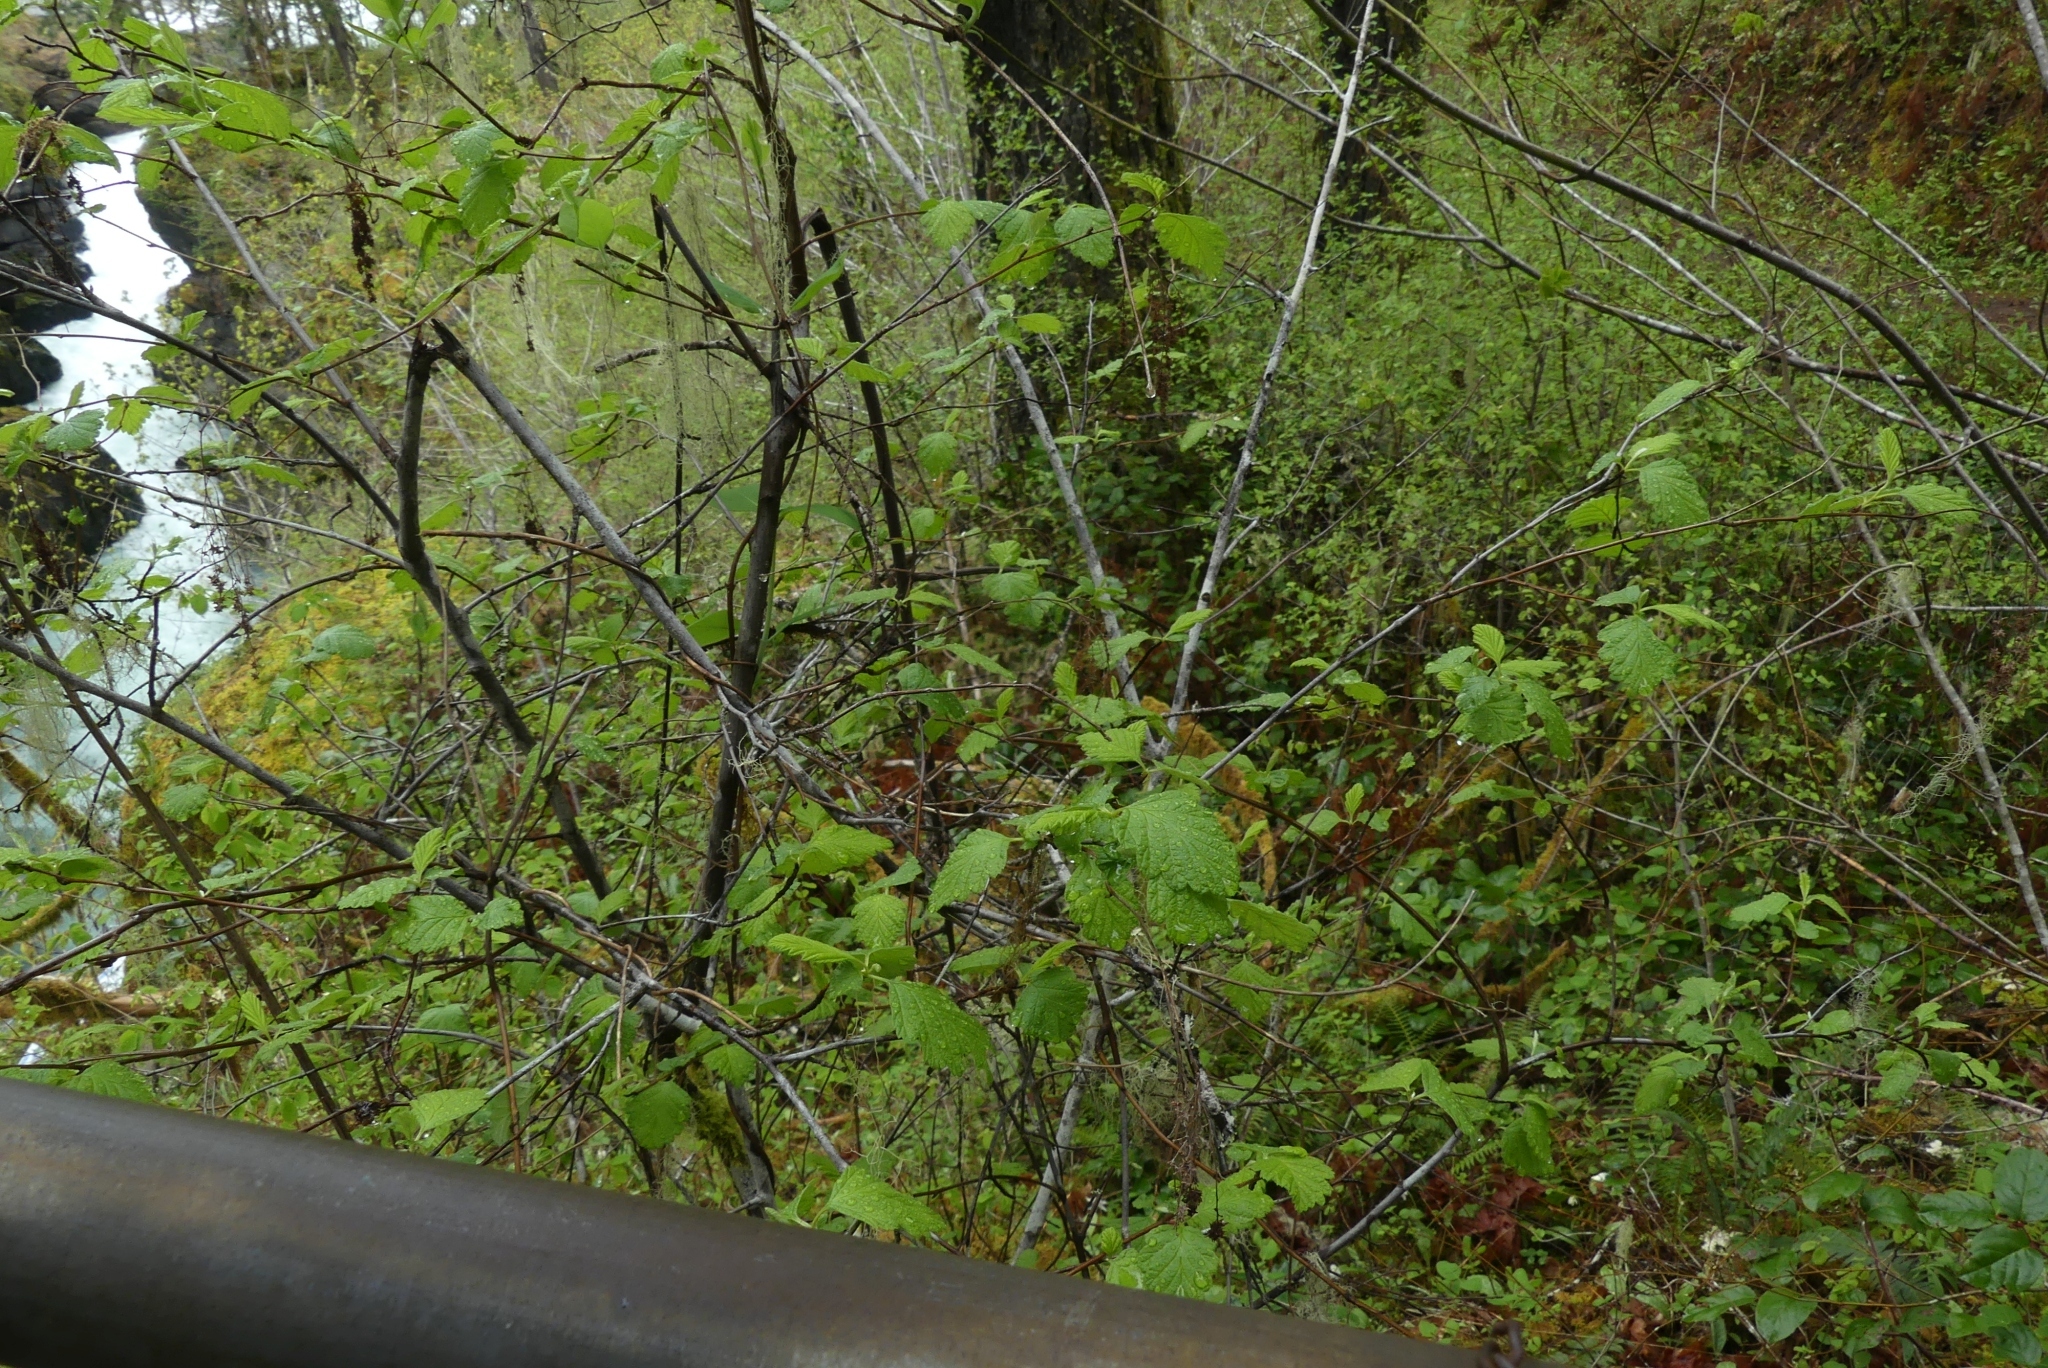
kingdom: Plantae
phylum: Tracheophyta
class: Magnoliopsida
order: Rosales
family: Rosaceae
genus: Holodiscus
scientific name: Holodiscus discolor
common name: Oceanspray
